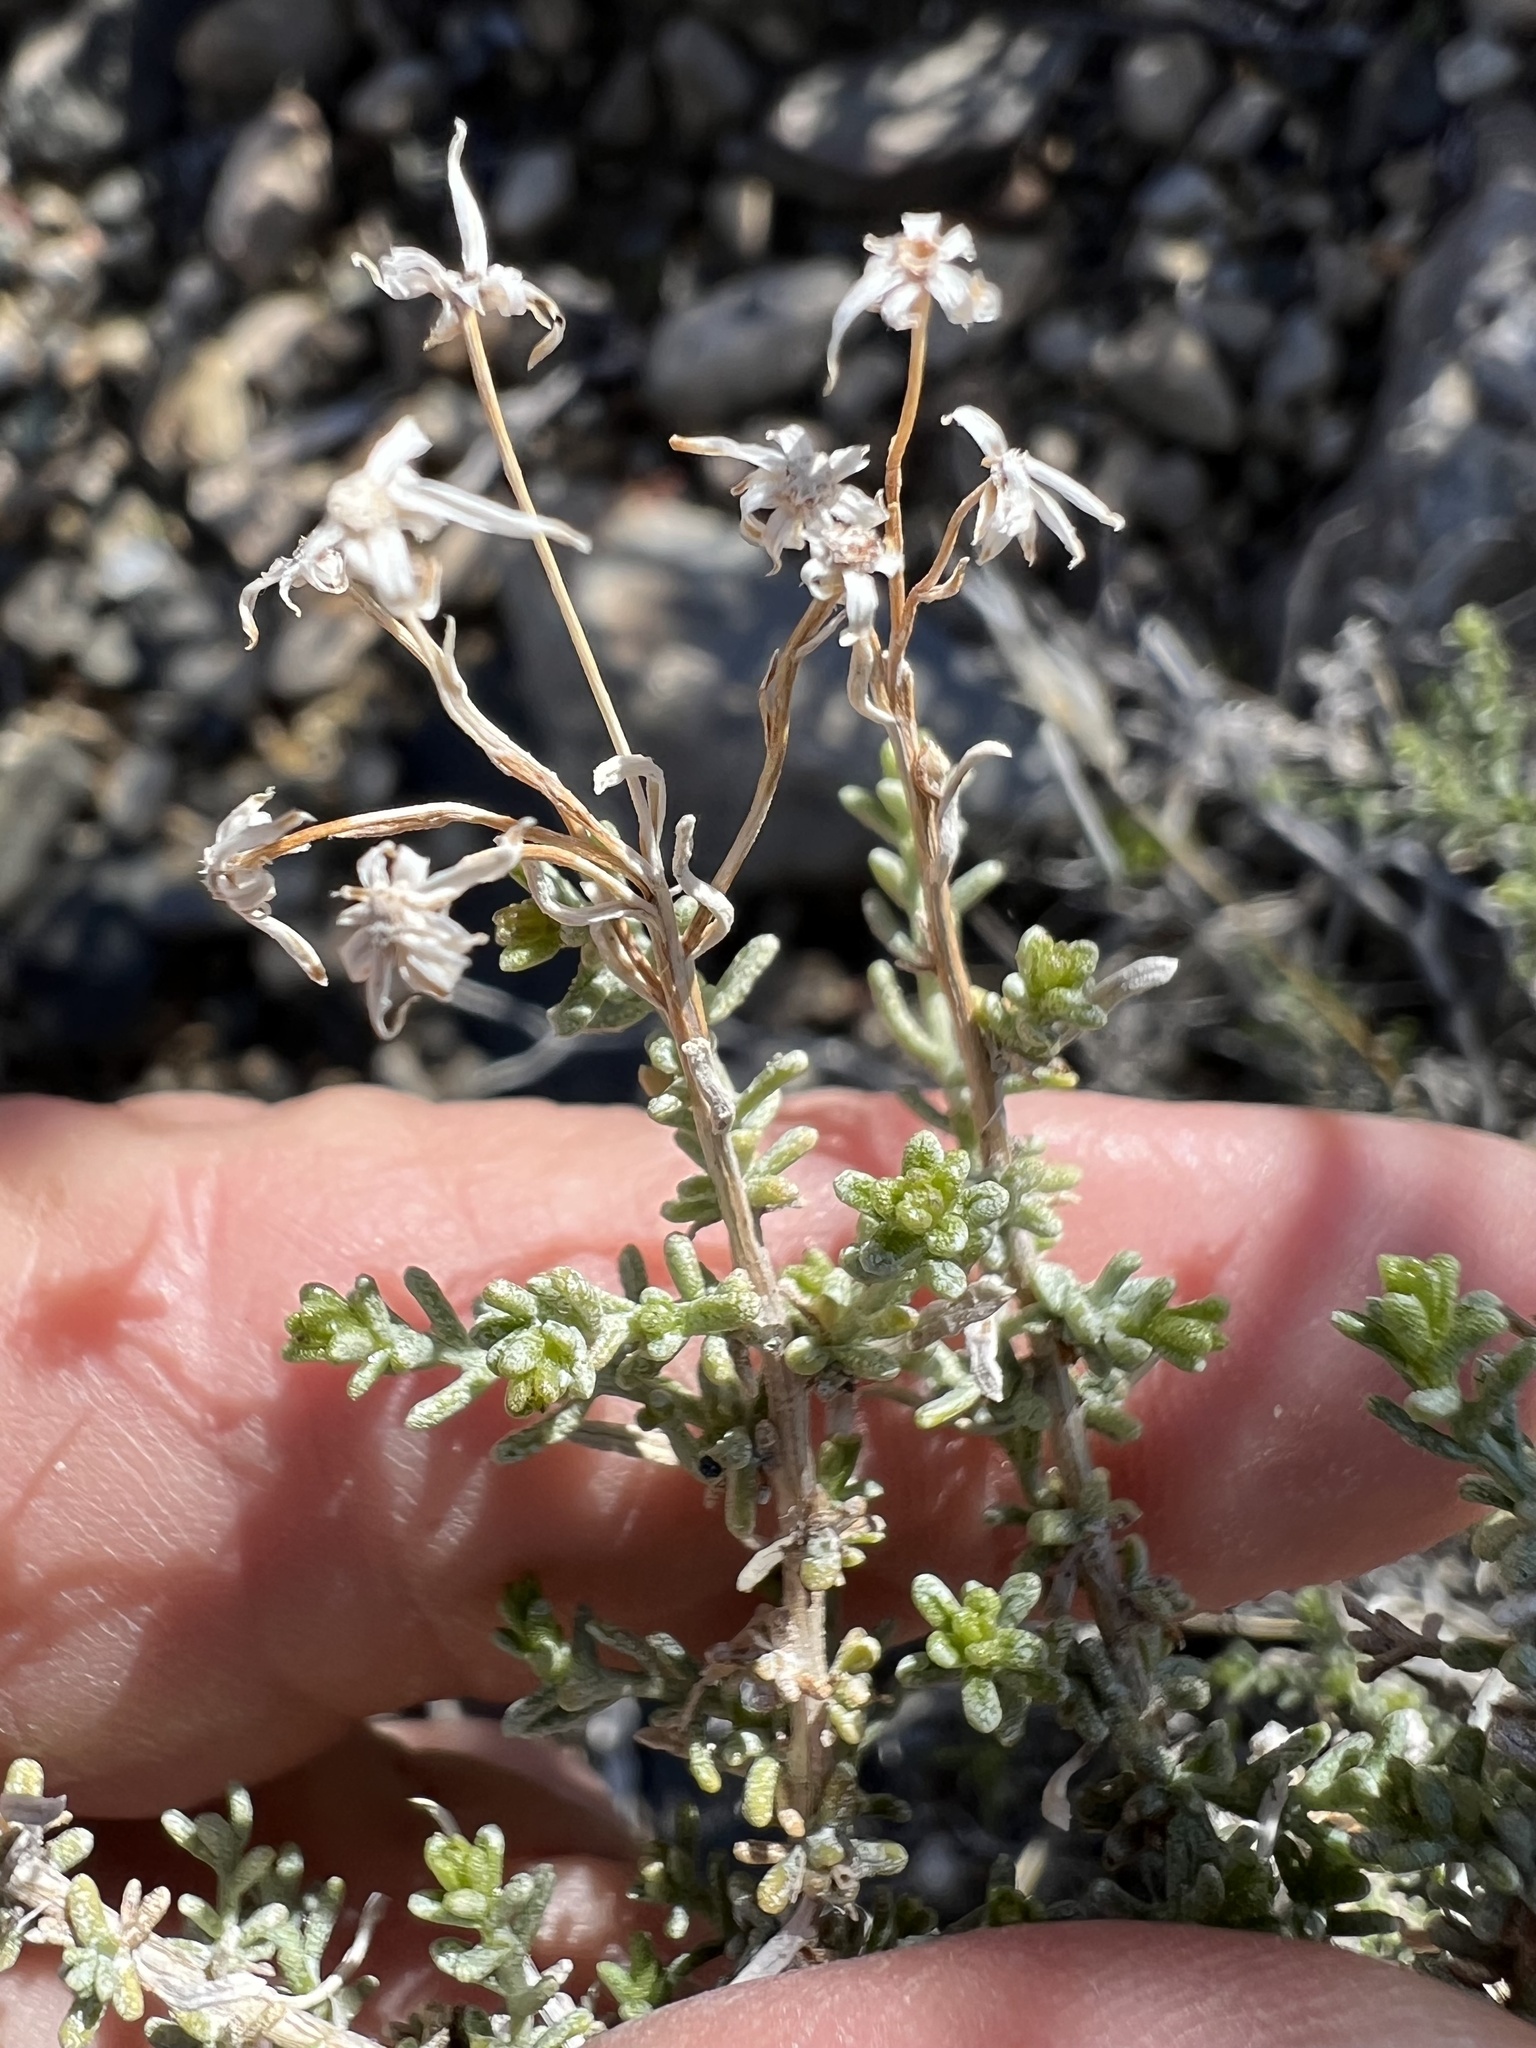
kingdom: Plantae
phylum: Tracheophyta
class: Magnoliopsida
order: Asterales
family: Asteraceae
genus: Ericameria
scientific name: Ericameria cooperi
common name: Cooper's goldenbush
